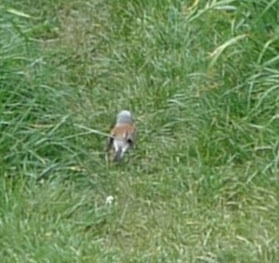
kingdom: Animalia
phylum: Chordata
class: Aves
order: Passeriformes
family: Laniidae
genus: Lanius
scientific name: Lanius collurio
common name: Red-backed shrike
